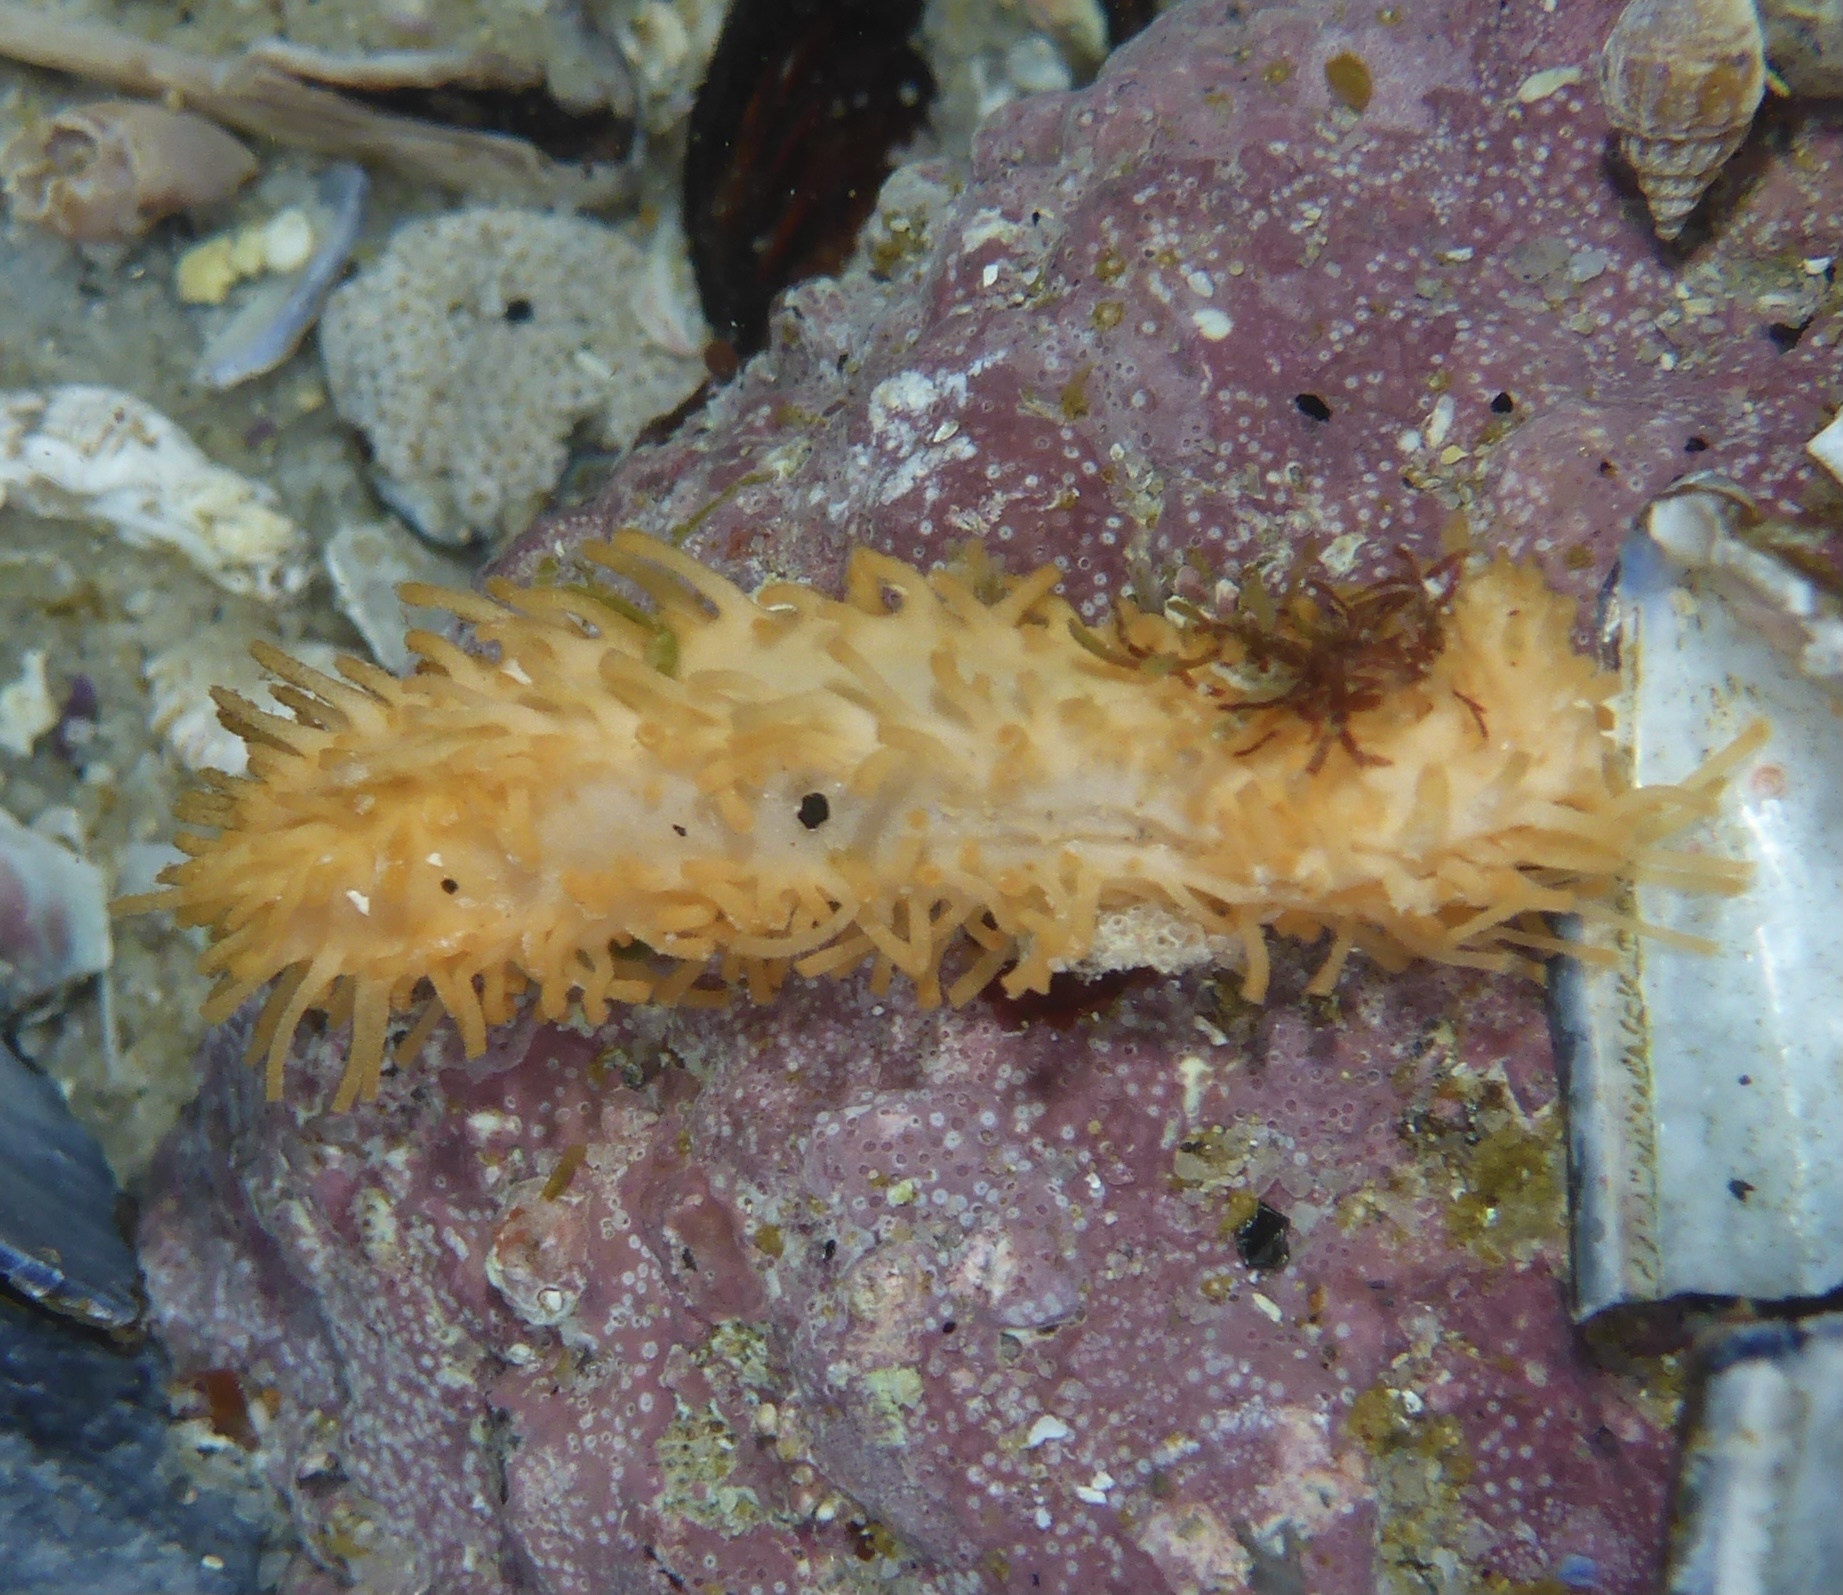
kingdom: Animalia
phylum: Echinodermata
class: Holothuroidea
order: Dendrochirotida
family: Sclerodactylidae
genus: Eupentacta
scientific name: Eupentacta quinquesemita
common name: Pentamerous sea cucumber
